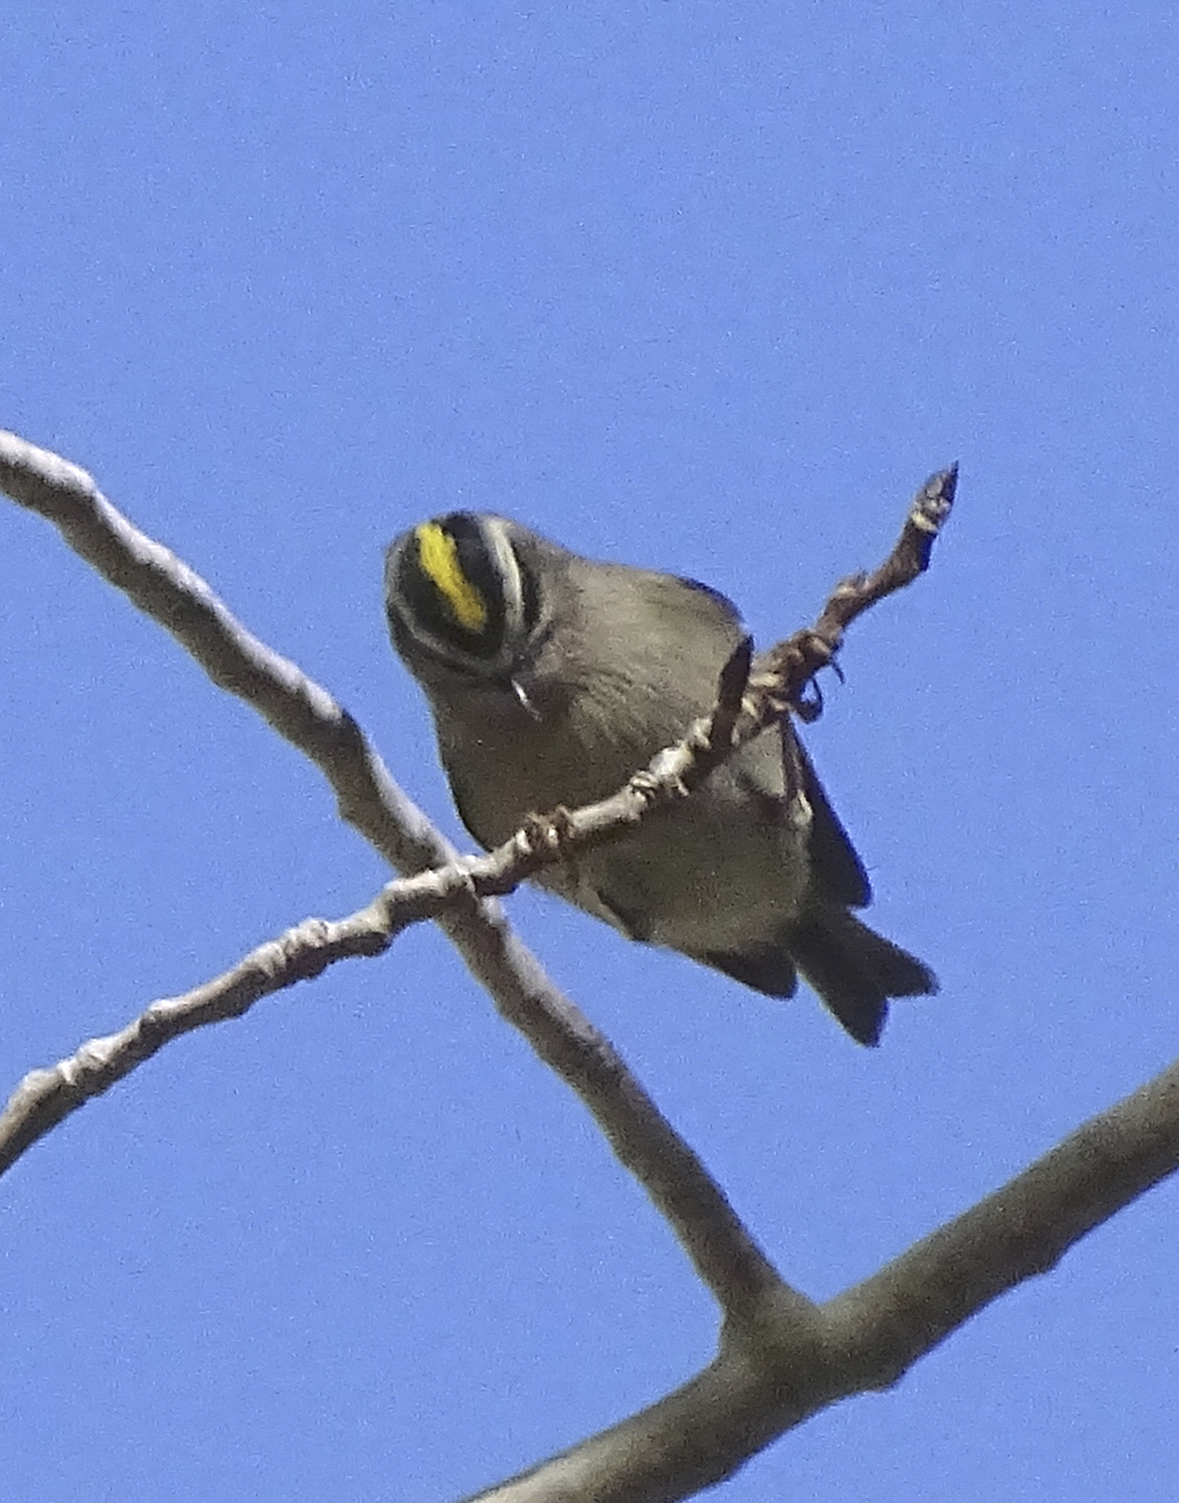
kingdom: Animalia
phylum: Chordata
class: Aves
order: Passeriformes
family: Regulidae
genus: Regulus
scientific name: Regulus satrapa
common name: Golden-crowned kinglet
